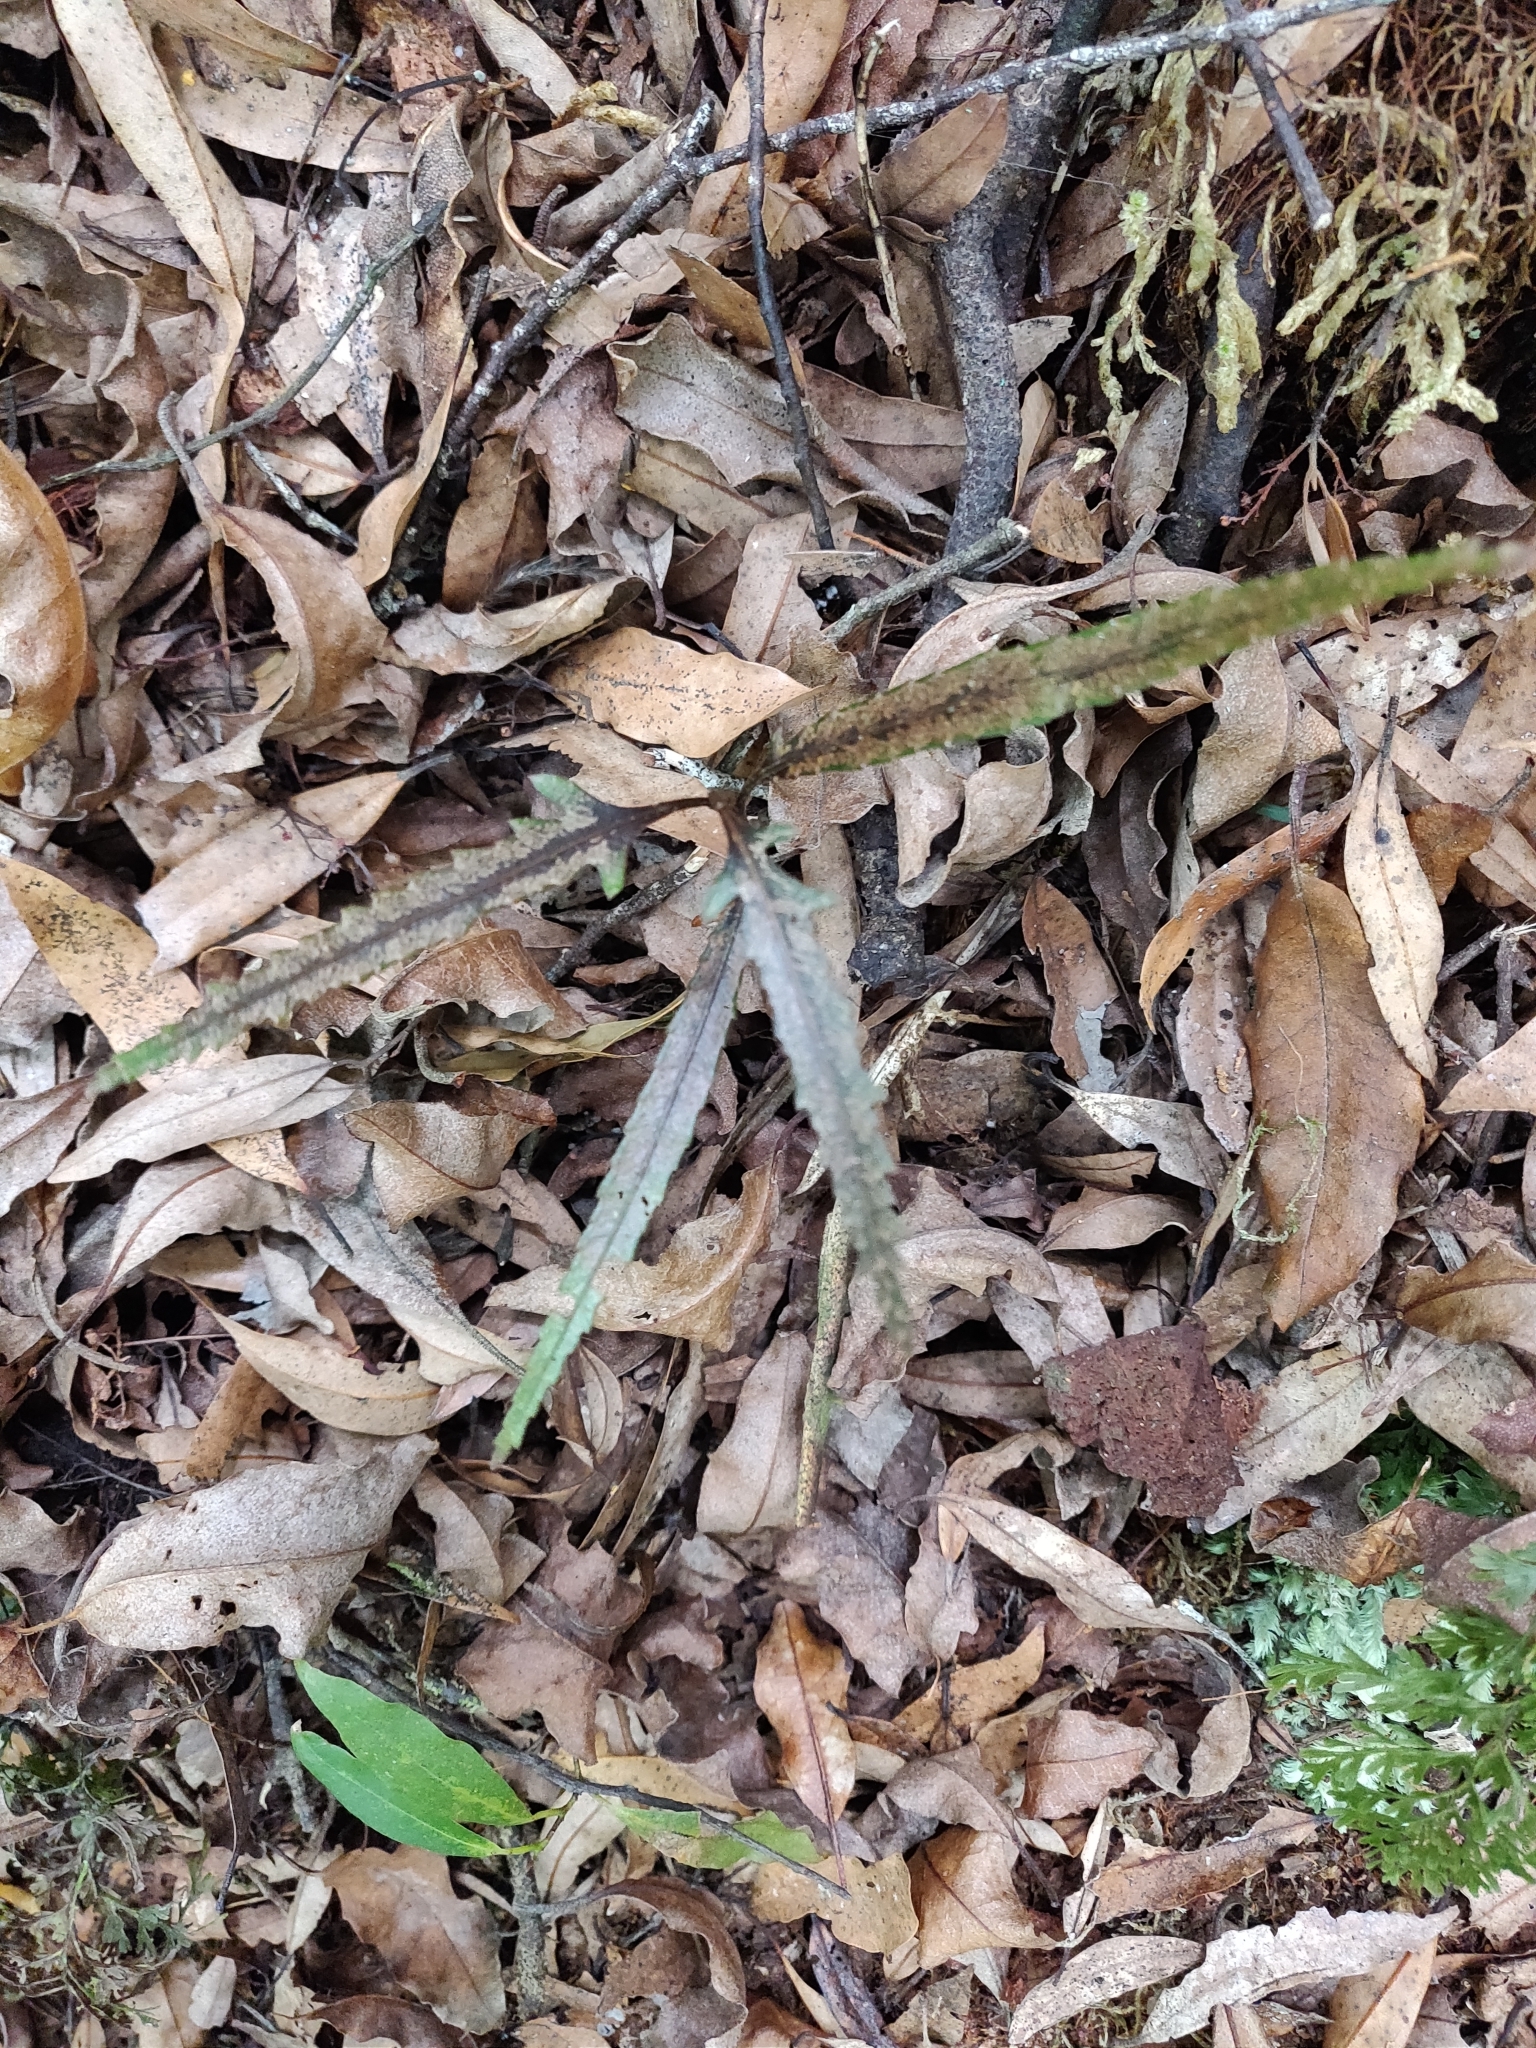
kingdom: Plantae
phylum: Tracheophyta
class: Magnoliopsida
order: Apiales
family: Araliaceae
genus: Pseudopanax
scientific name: Pseudopanax crassifolius
